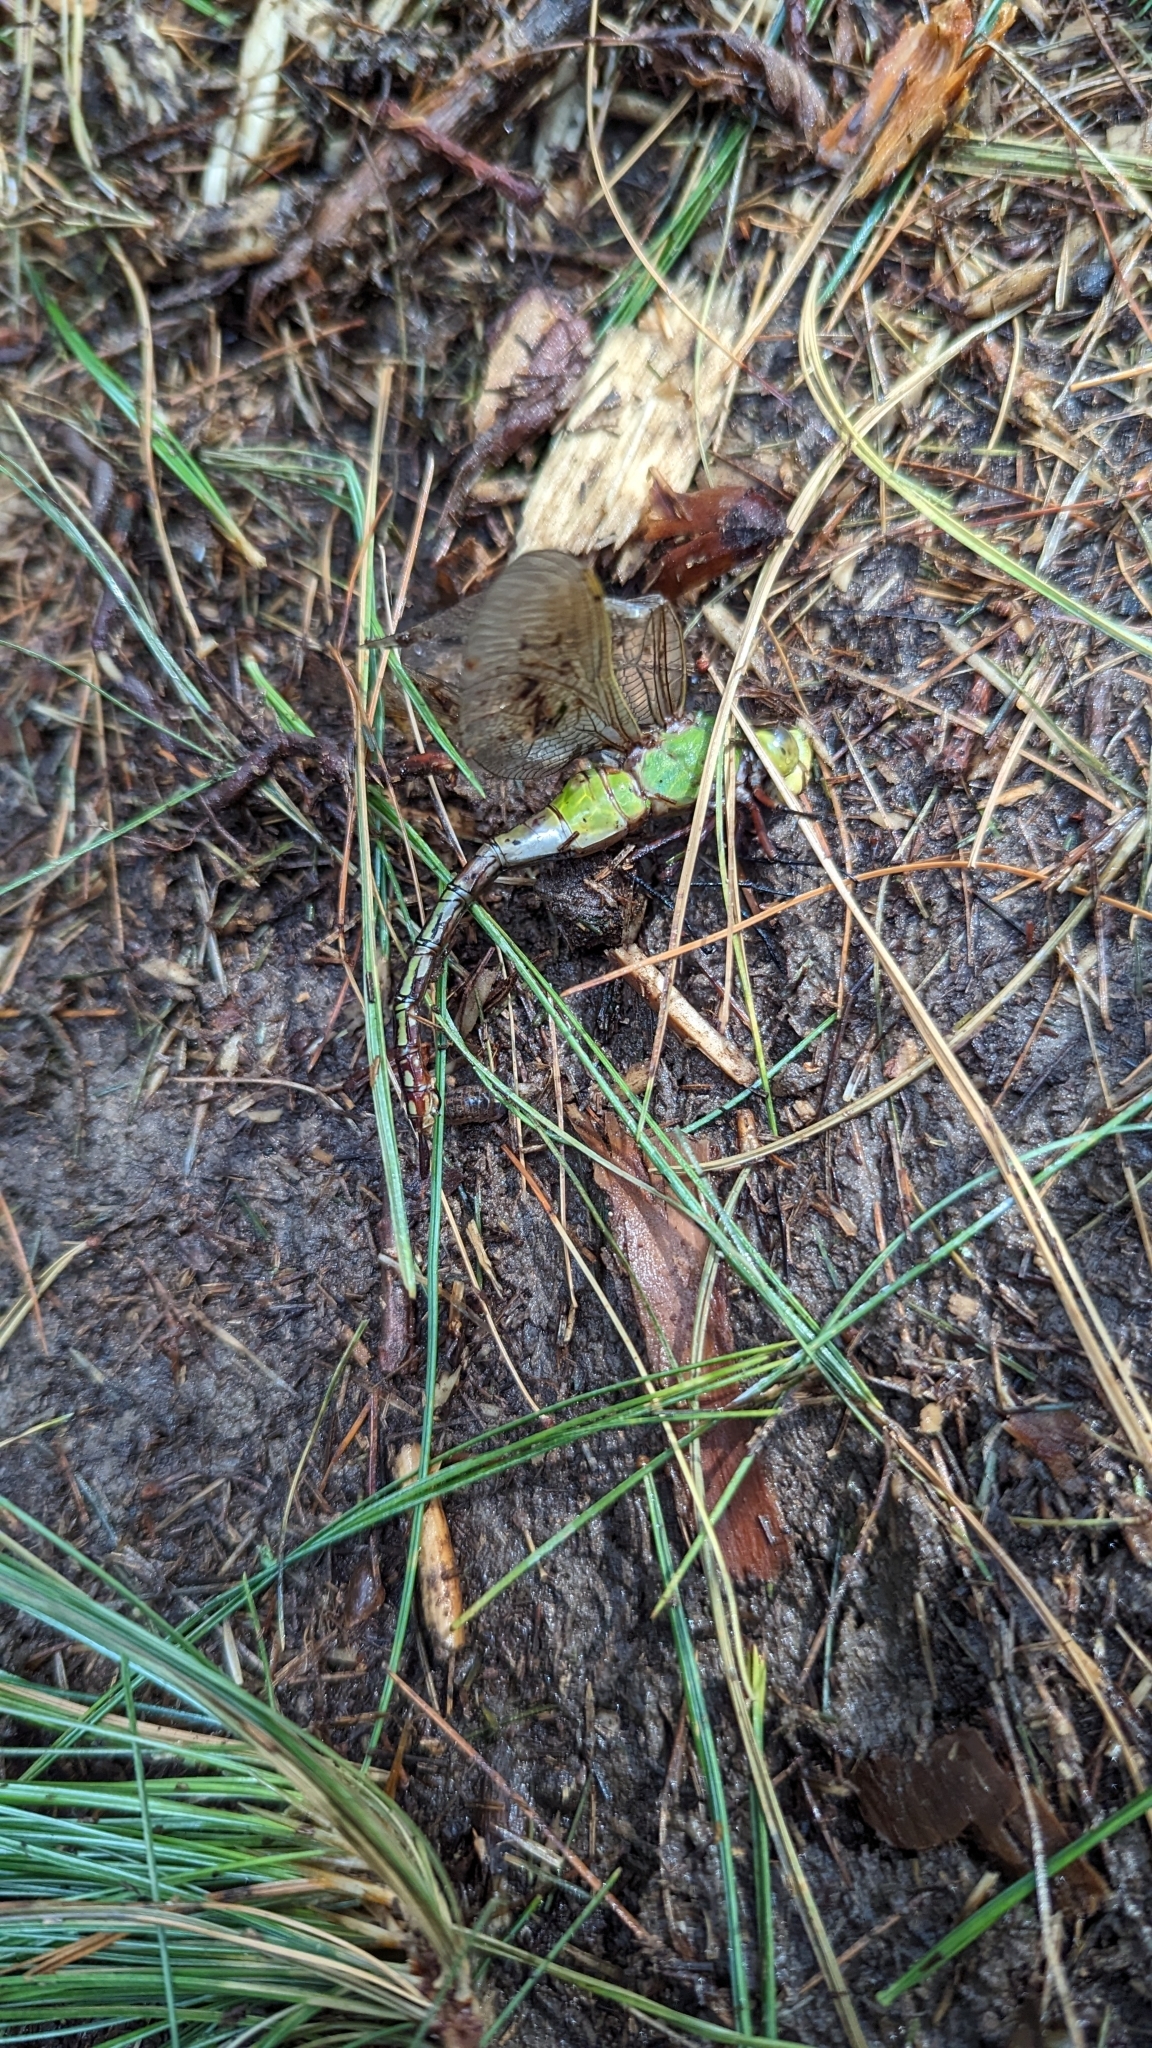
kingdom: Animalia
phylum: Arthropoda
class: Insecta
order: Odonata
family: Aeshnidae
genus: Anax
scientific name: Anax
